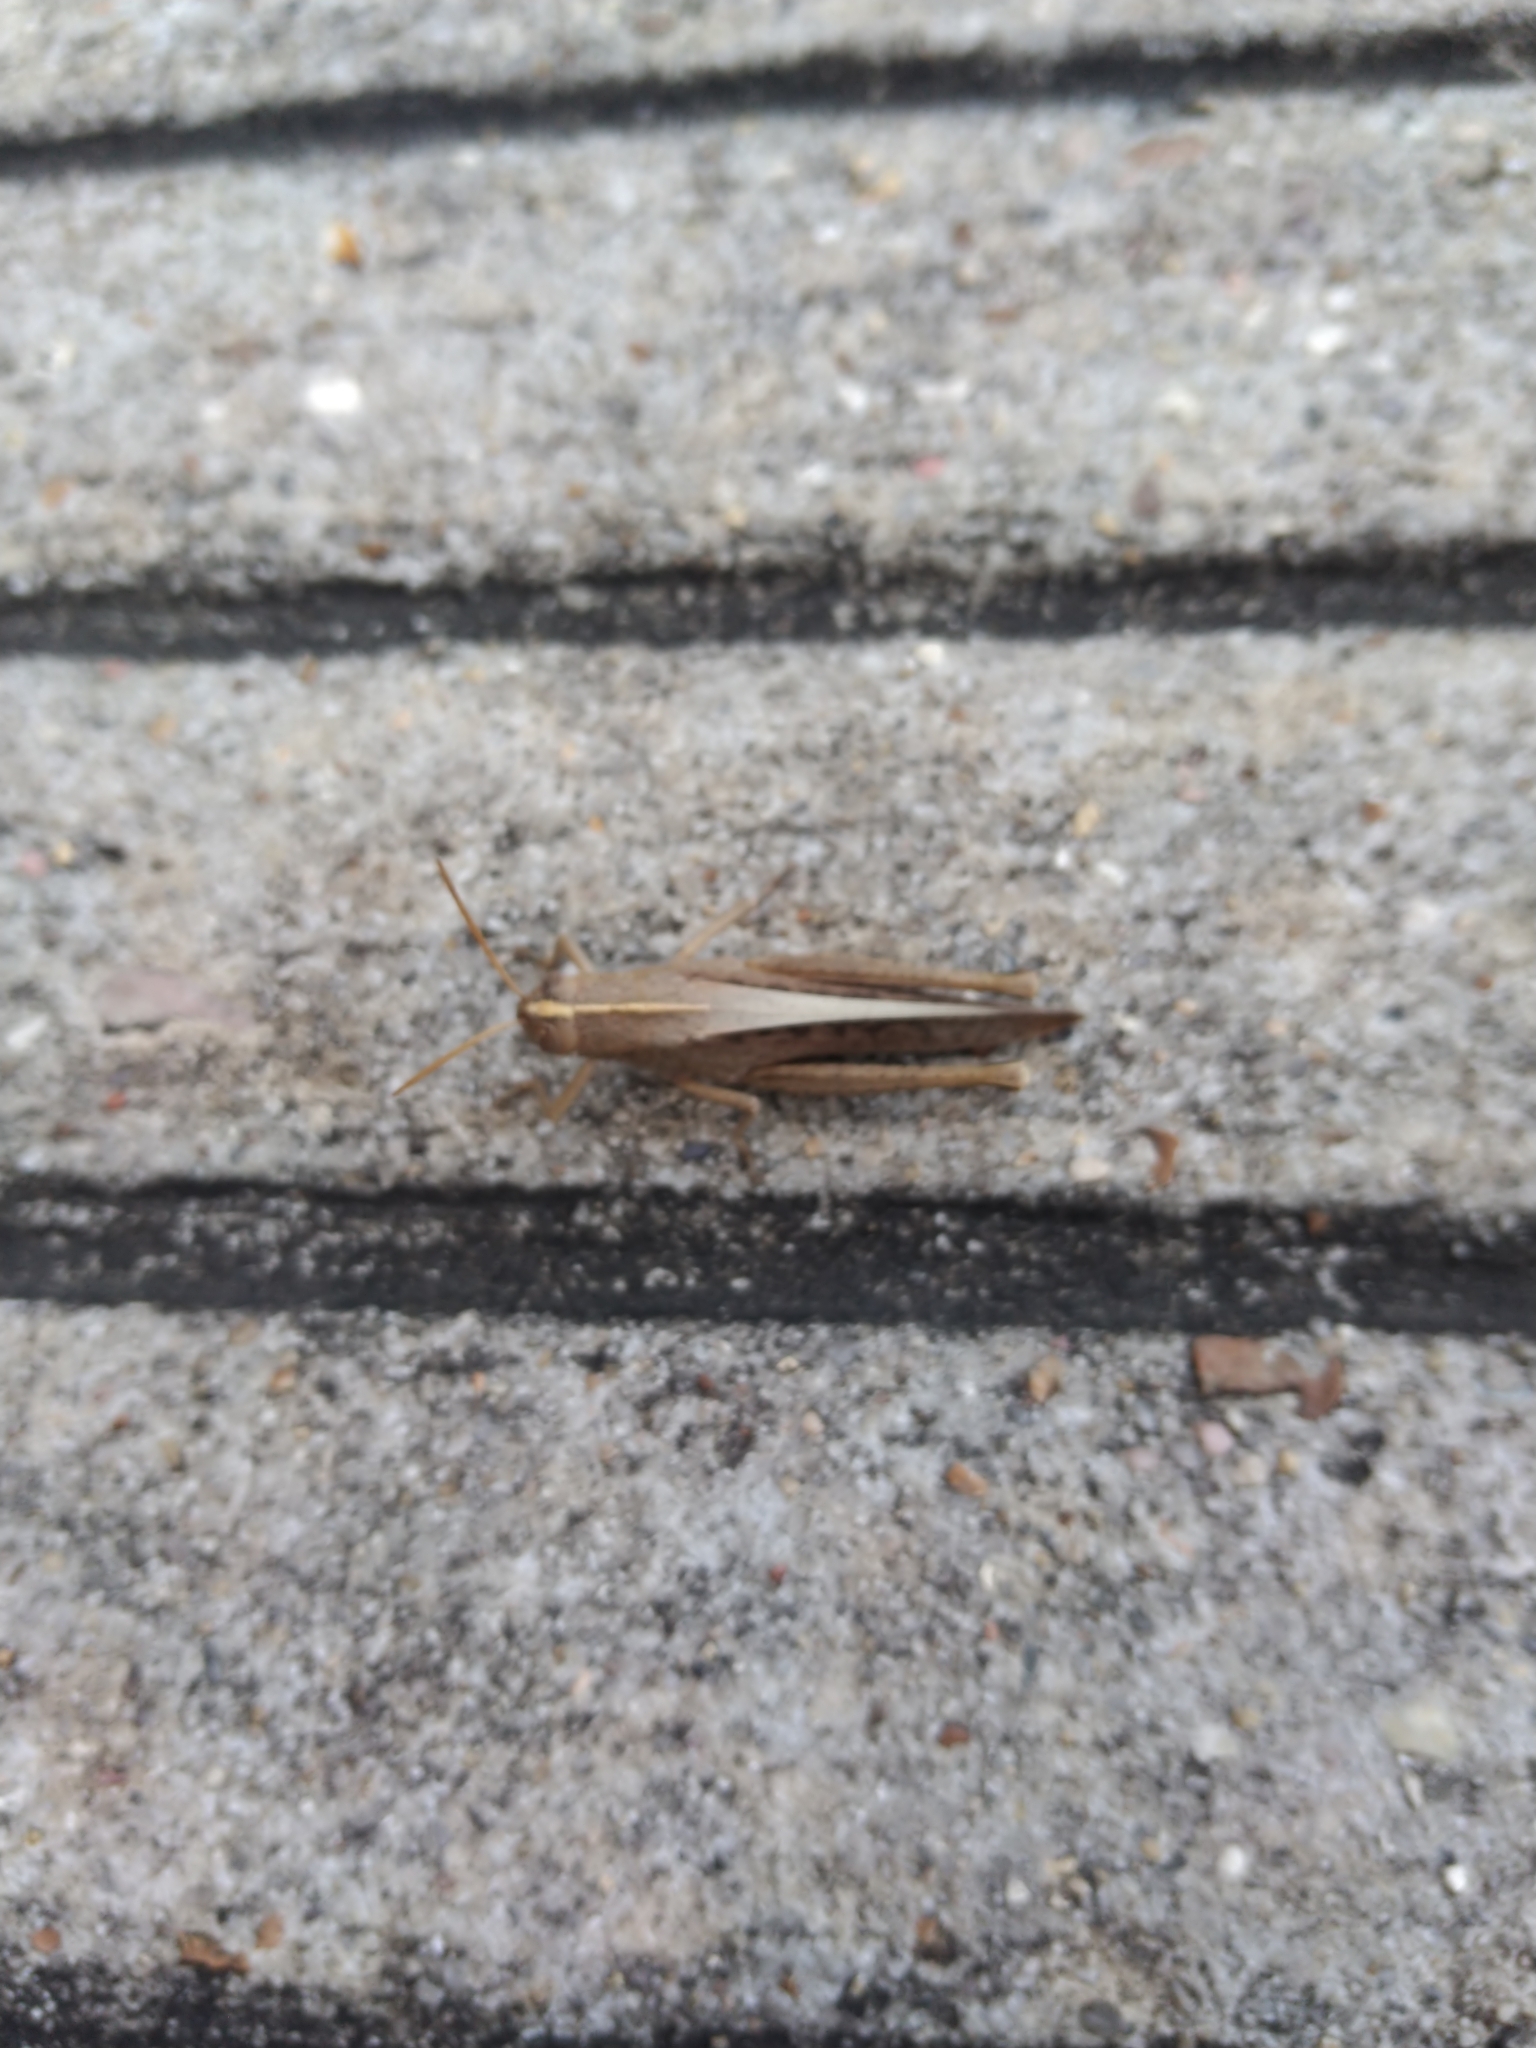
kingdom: Animalia
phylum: Arthropoda
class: Insecta
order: Orthoptera
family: Acrididae
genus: Schistocerca
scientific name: Schistocerca damnifica
